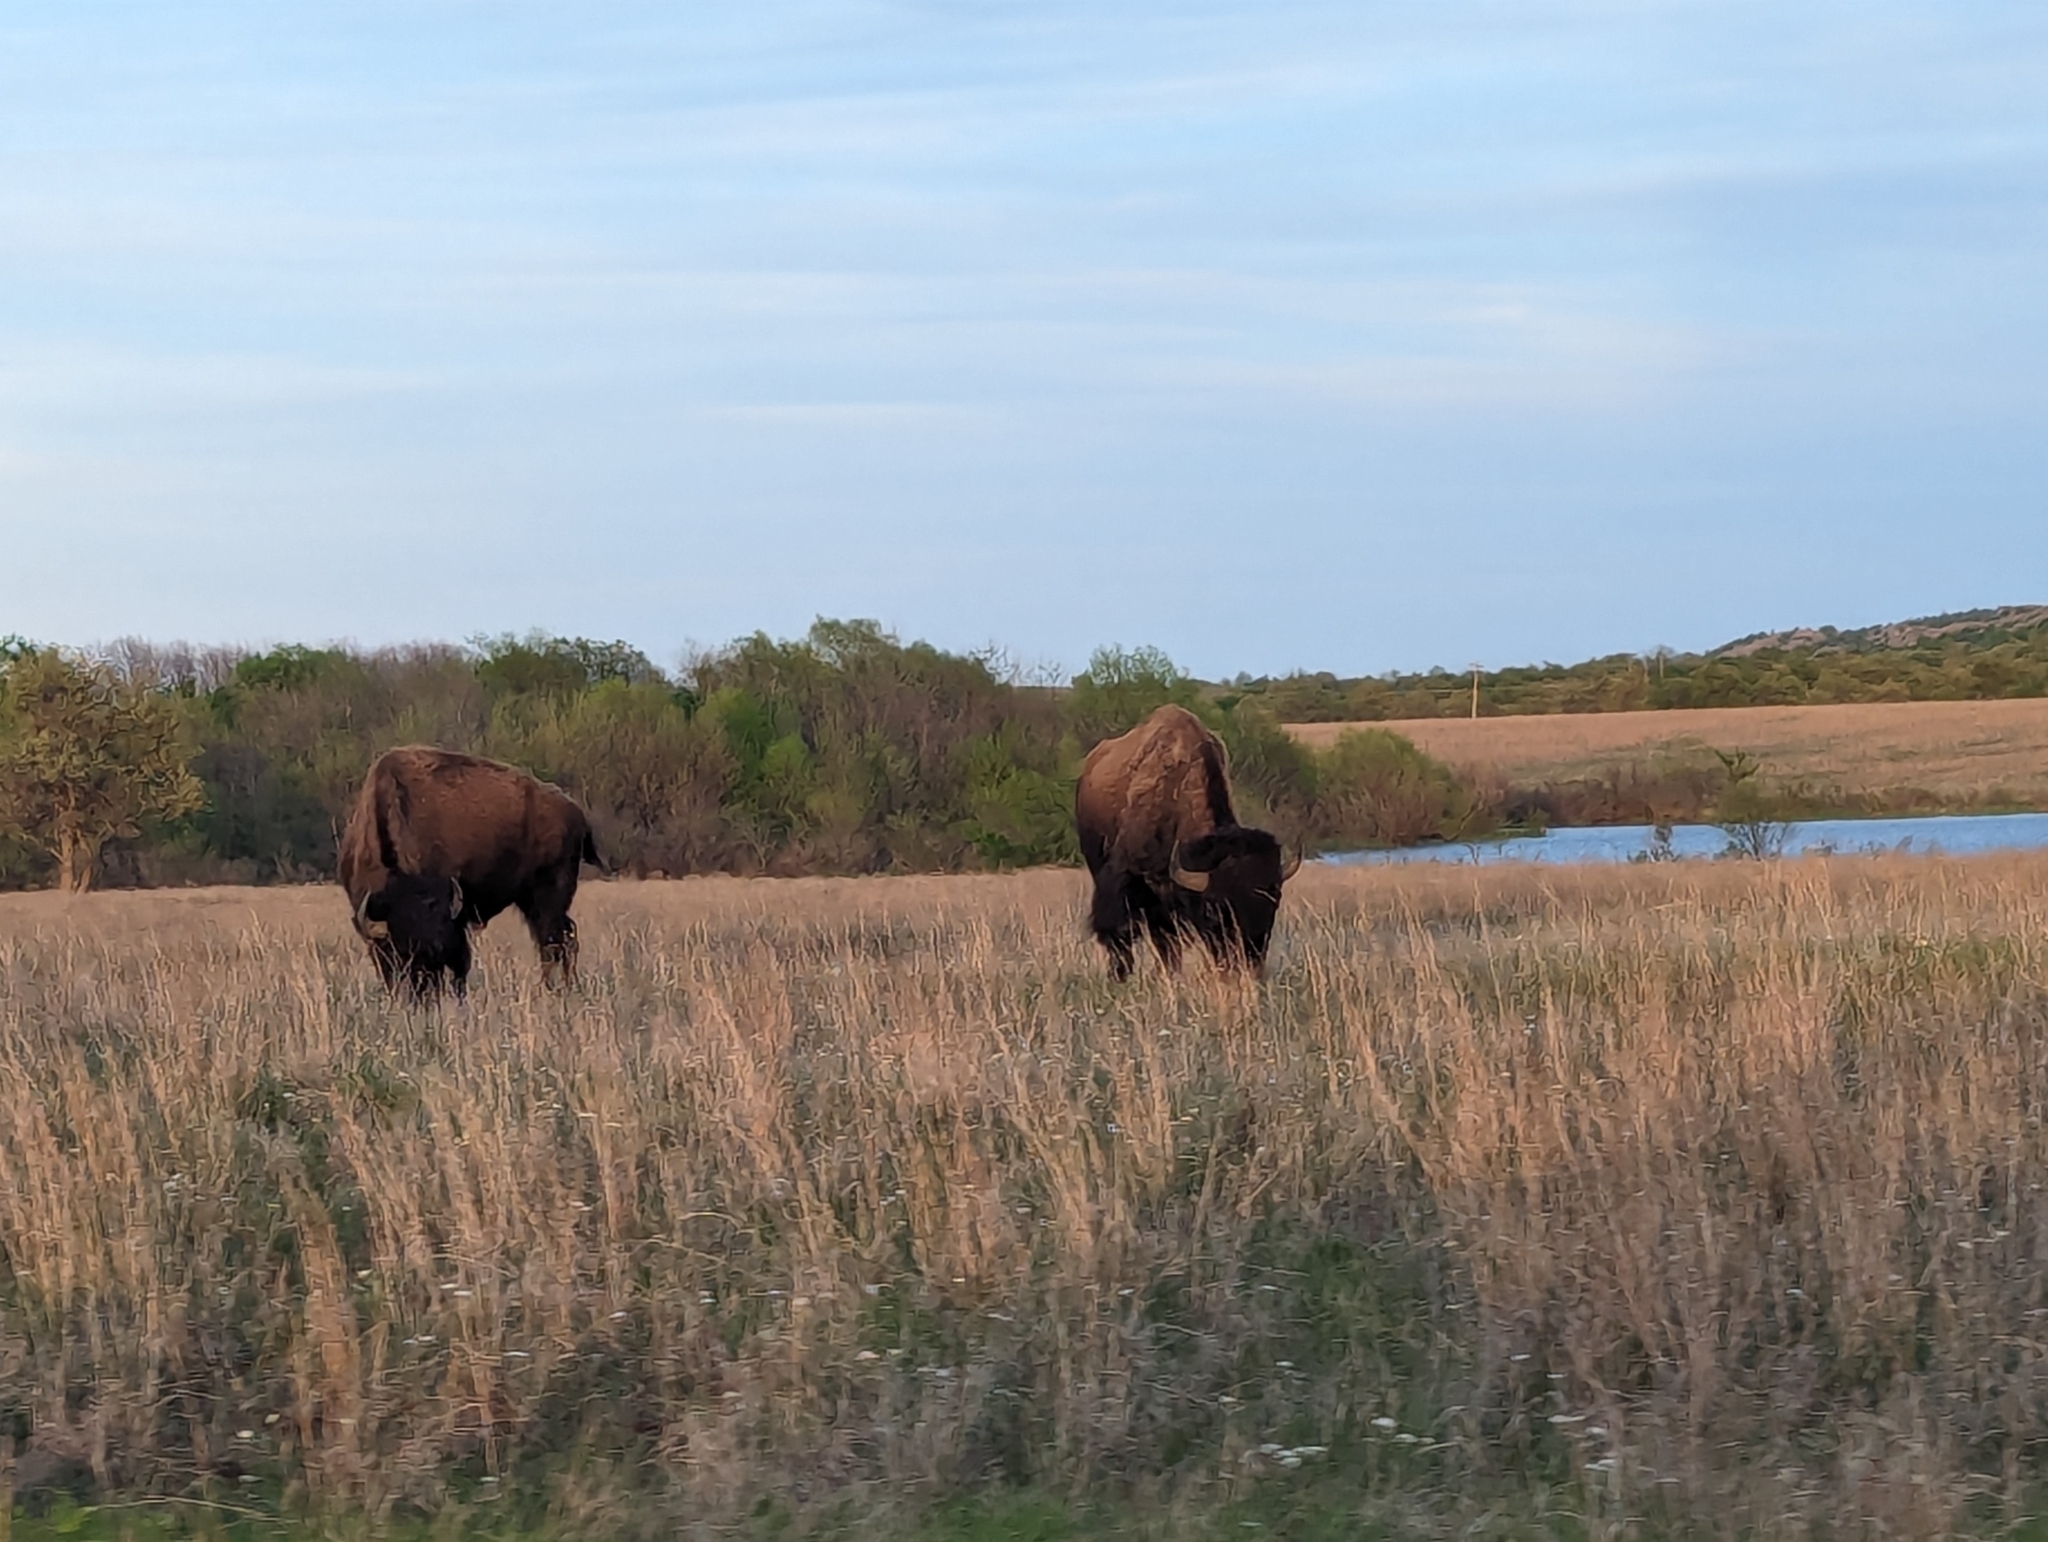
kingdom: Animalia
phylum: Chordata
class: Mammalia
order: Artiodactyla
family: Bovidae
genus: Bison
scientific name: Bison bison
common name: American bison
